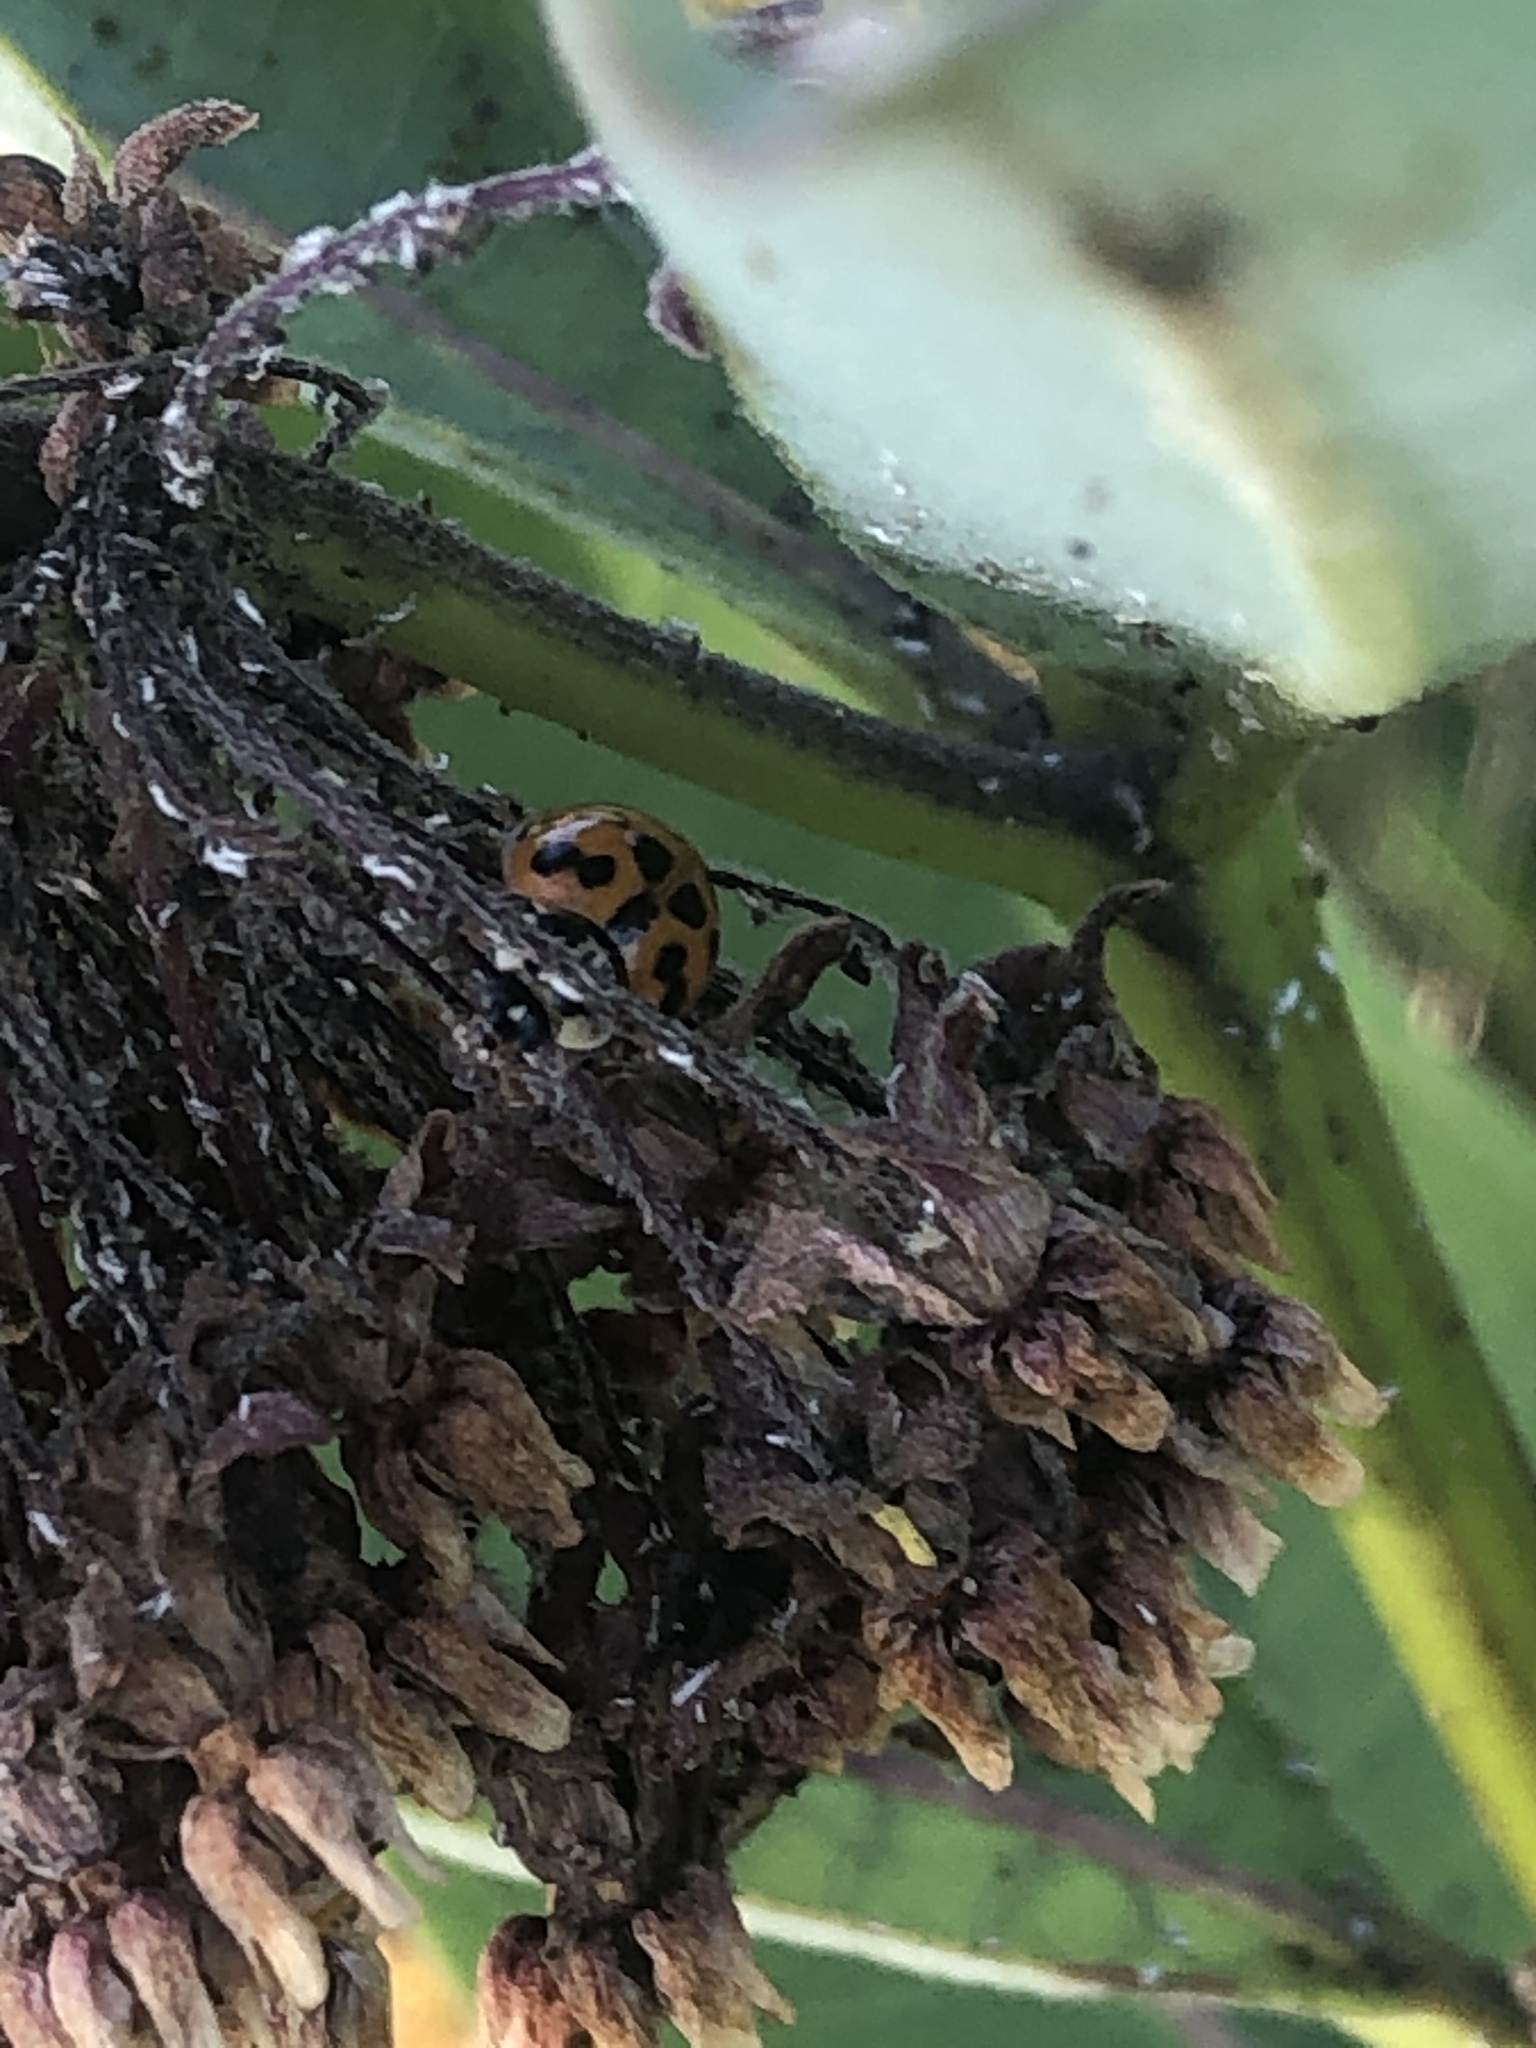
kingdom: Animalia
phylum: Arthropoda
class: Insecta
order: Coleoptera
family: Coccinellidae
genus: Harmonia
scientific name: Harmonia axyridis
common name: Harlequin ladybird
